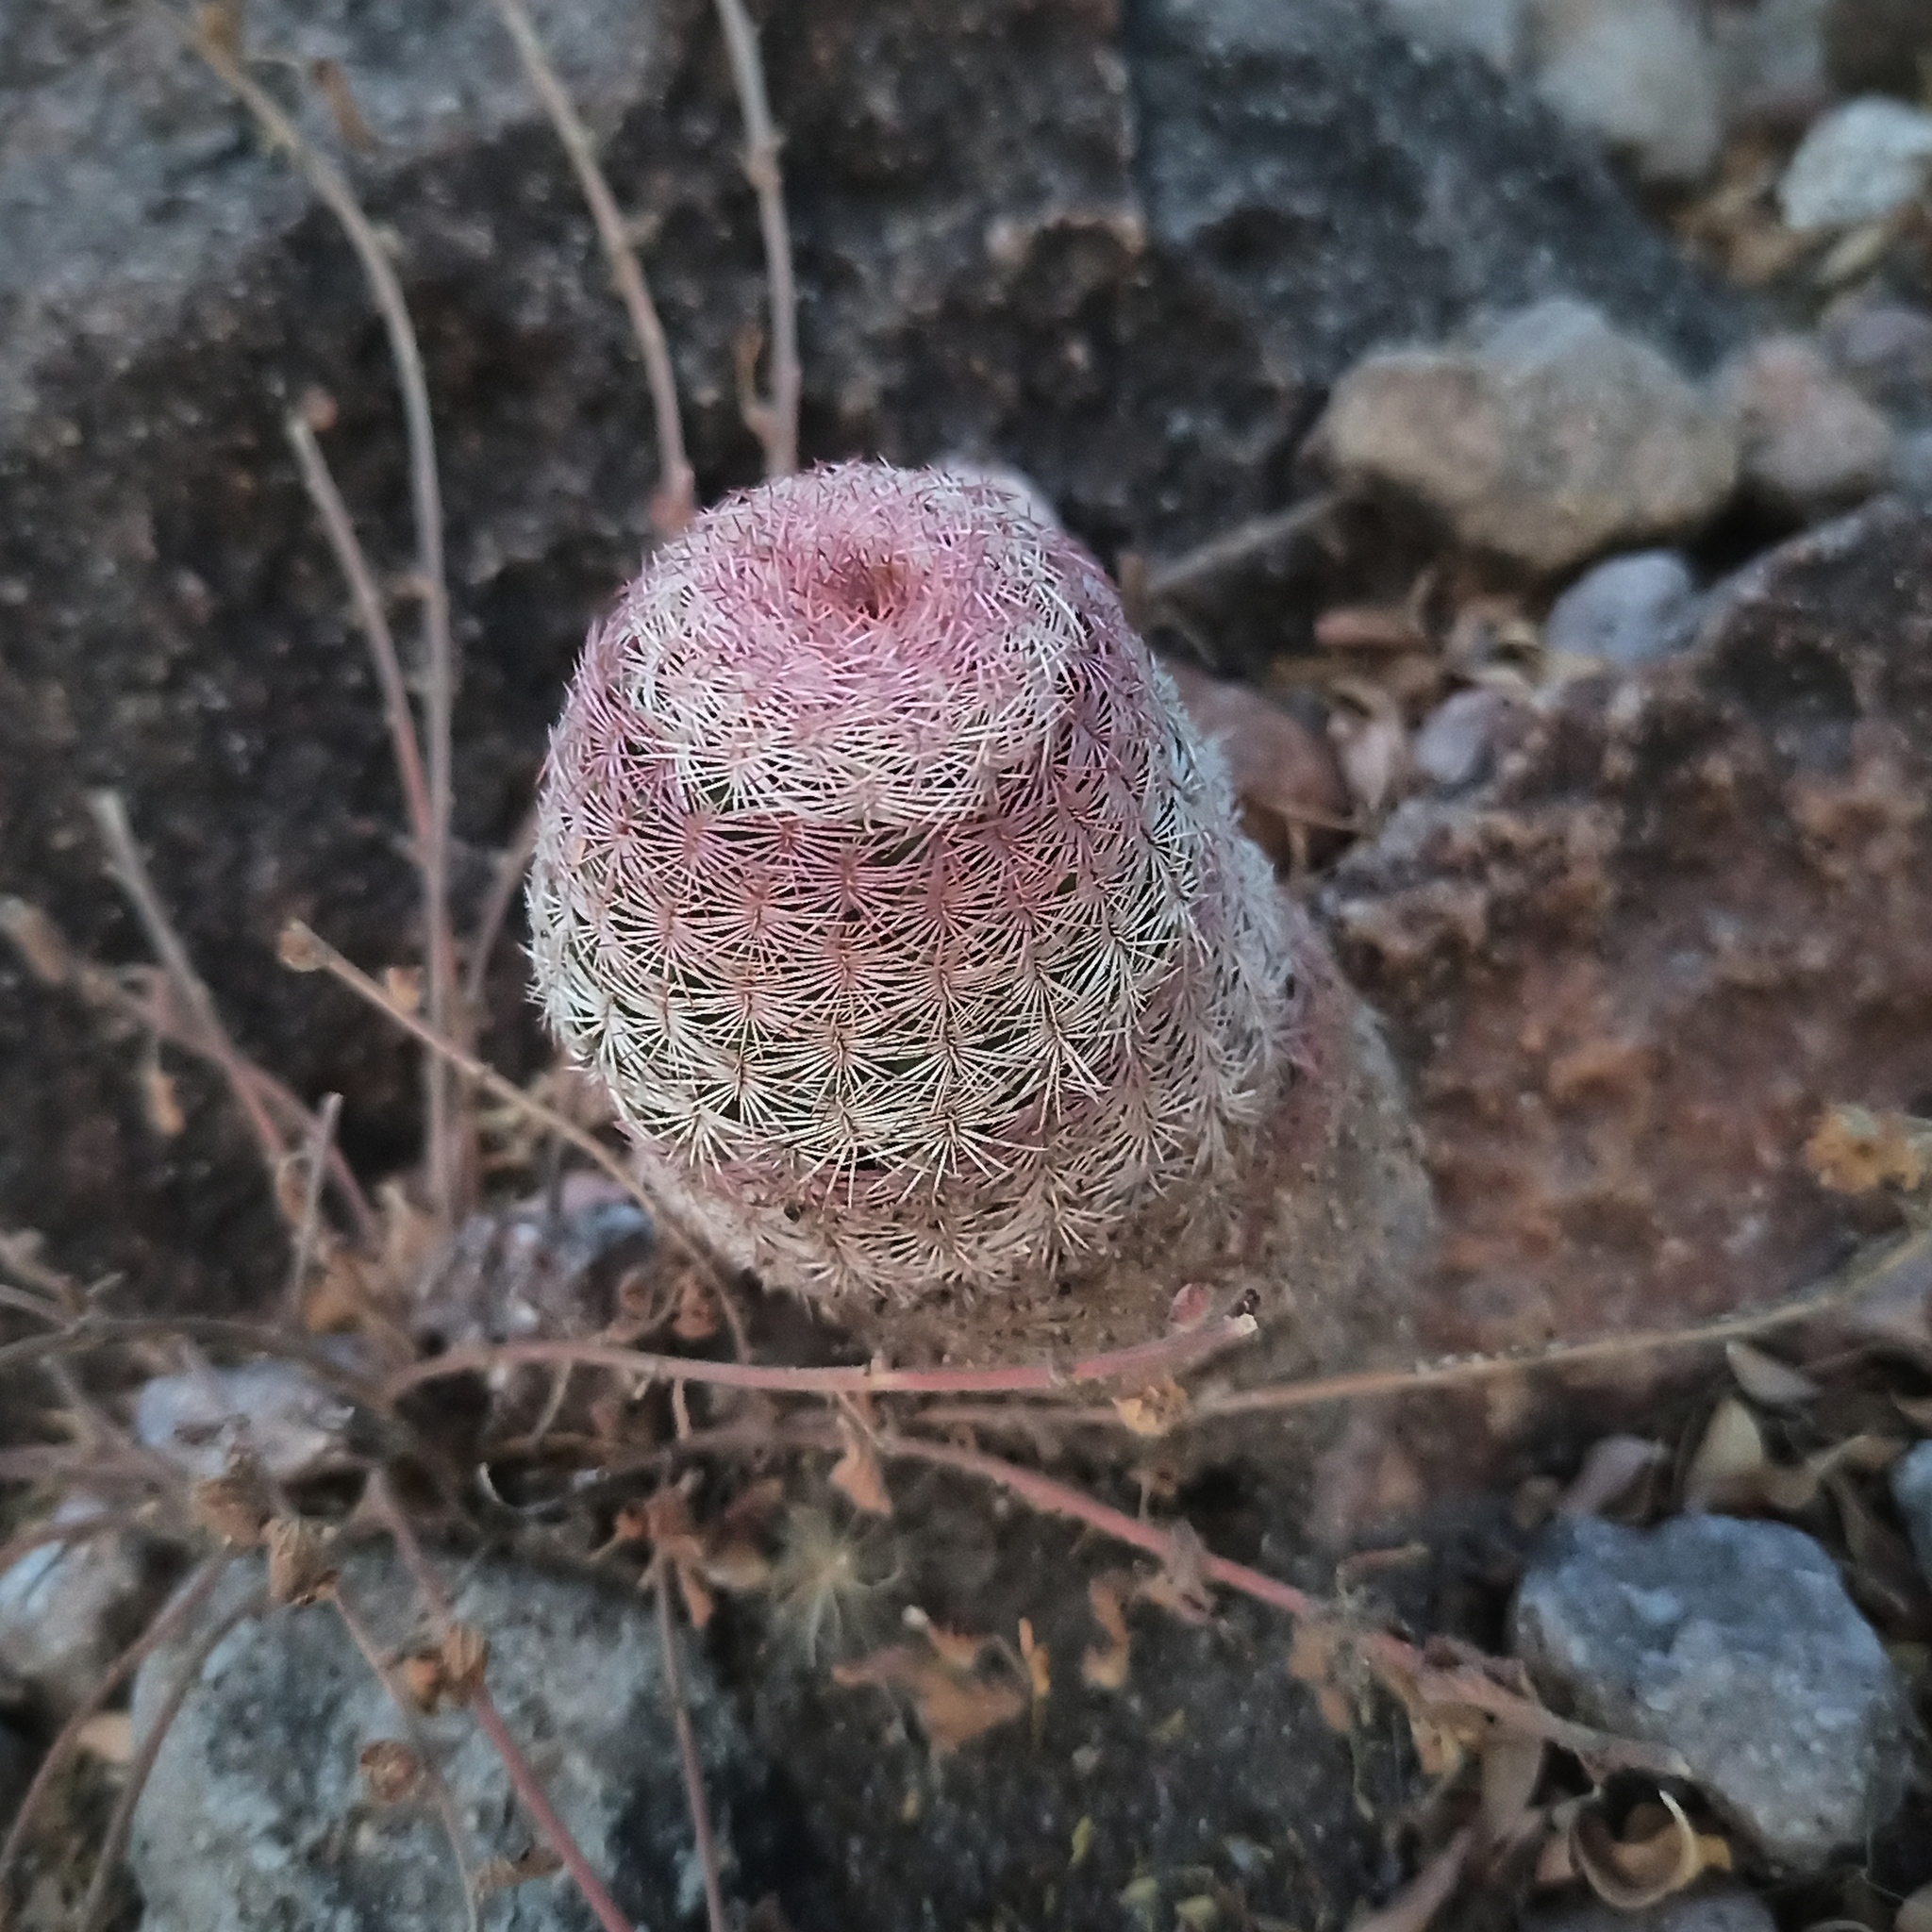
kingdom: Plantae
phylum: Tracheophyta
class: Magnoliopsida
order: Caryophyllales
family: Cactaceae
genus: Echinocereus
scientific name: Echinocereus pectinatus
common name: Rainbow cactus
